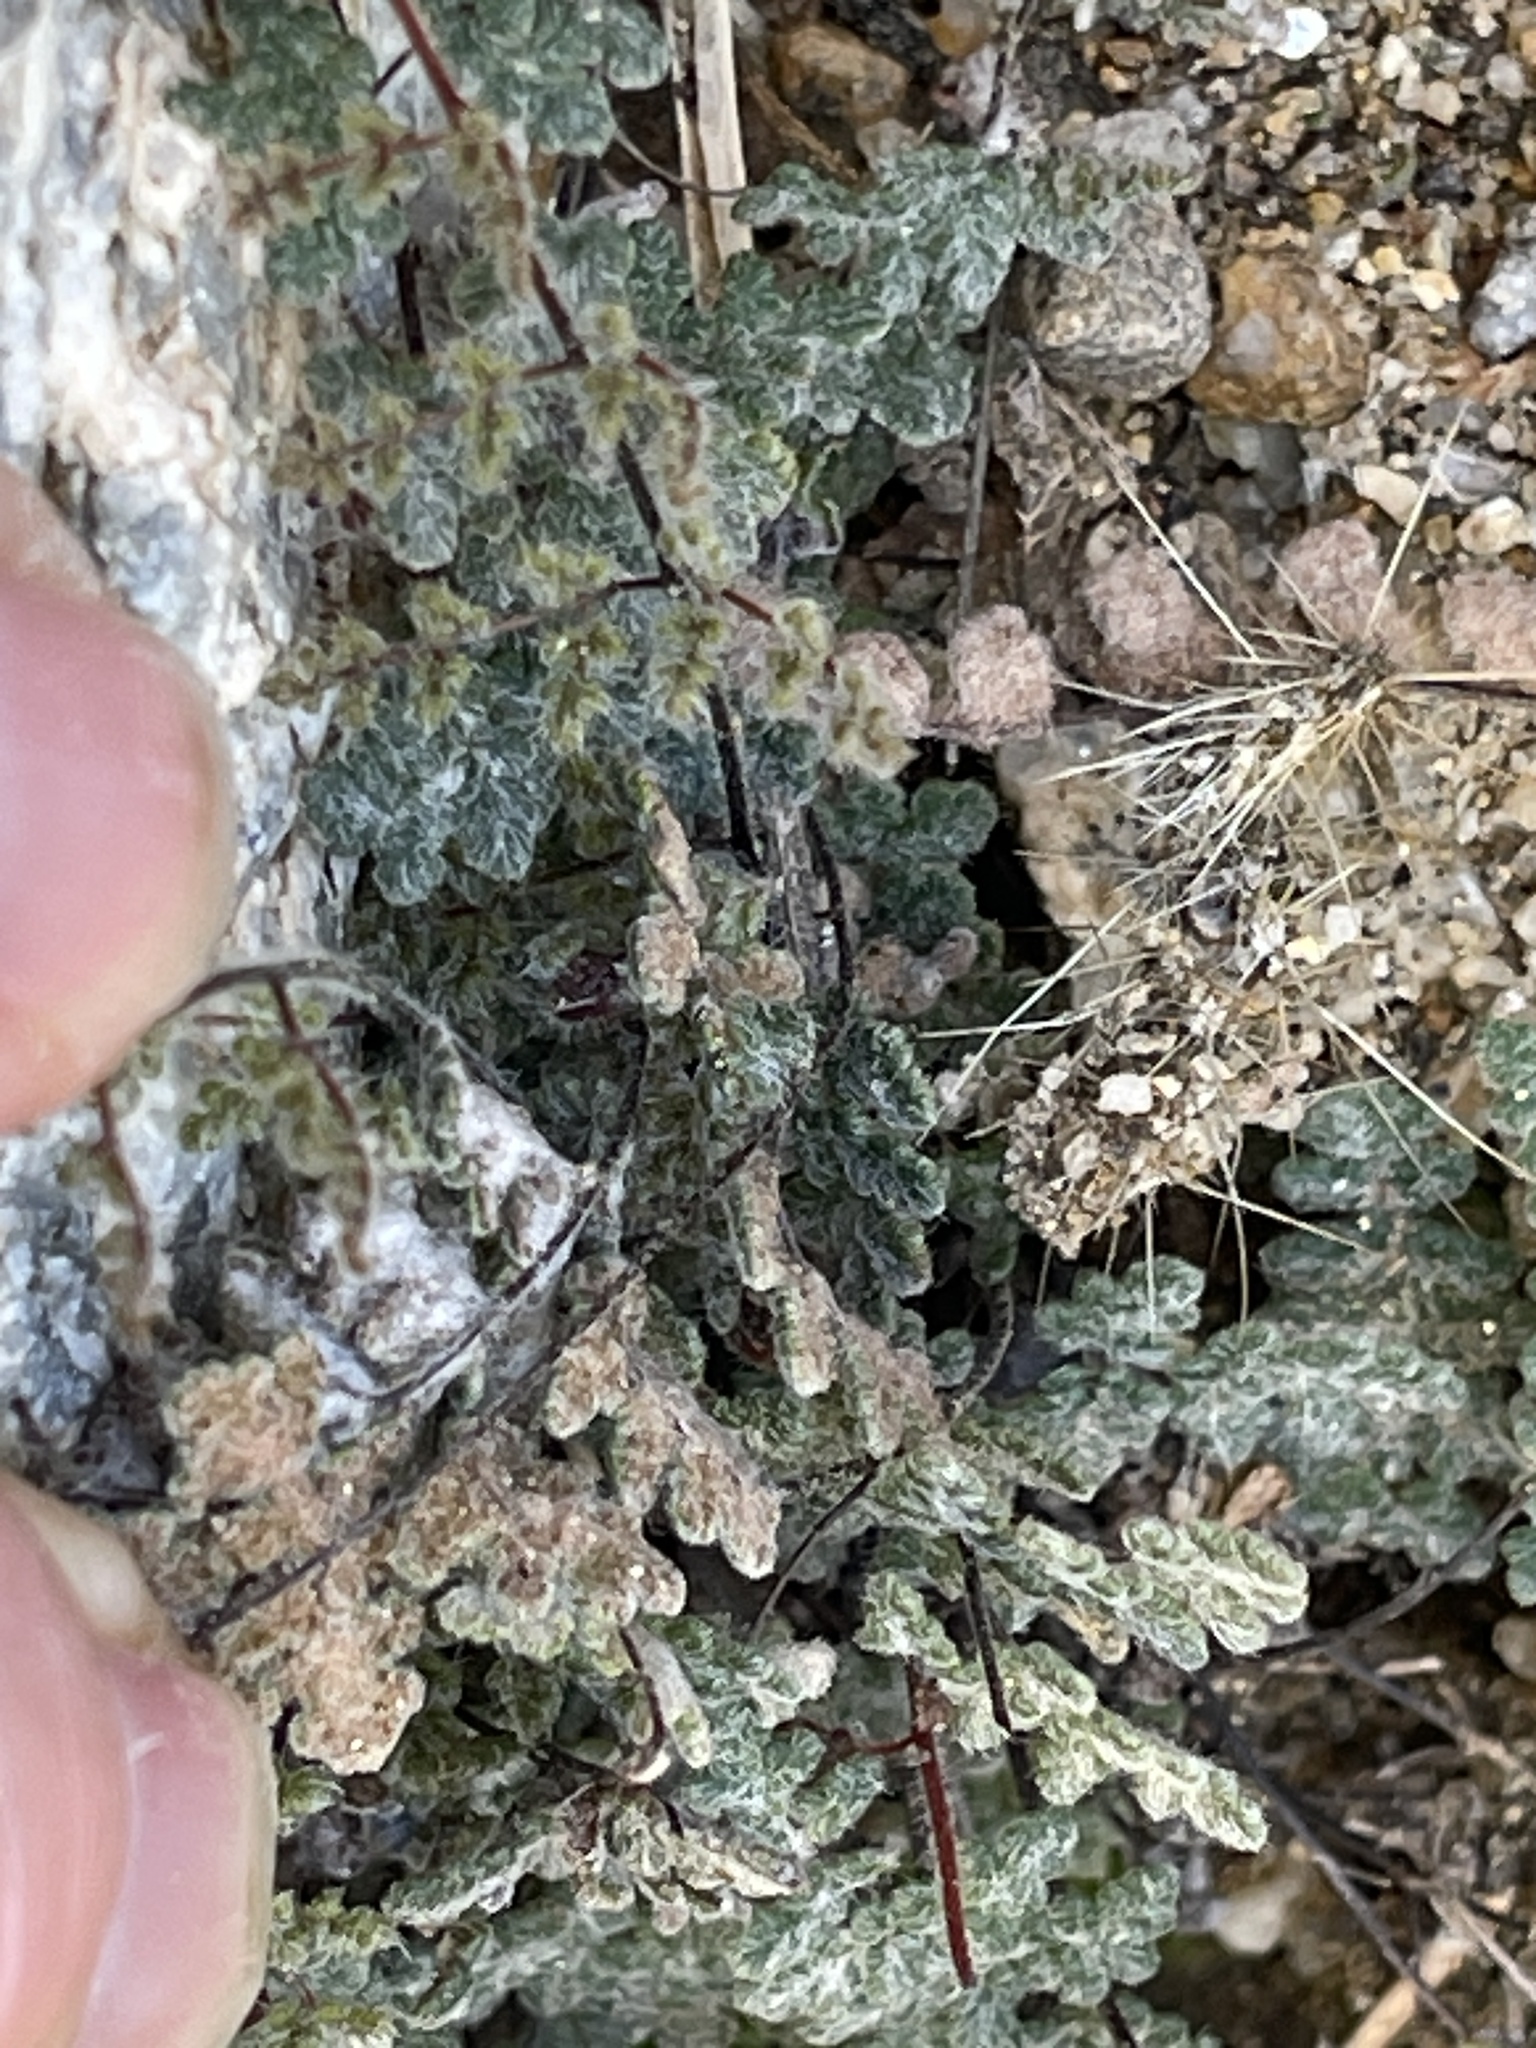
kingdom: Plantae
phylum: Tracheophyta
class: Polypodiopsida
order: Polypodiales
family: Pteridaceae
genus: Myriopteris
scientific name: Myriopteris parryi
